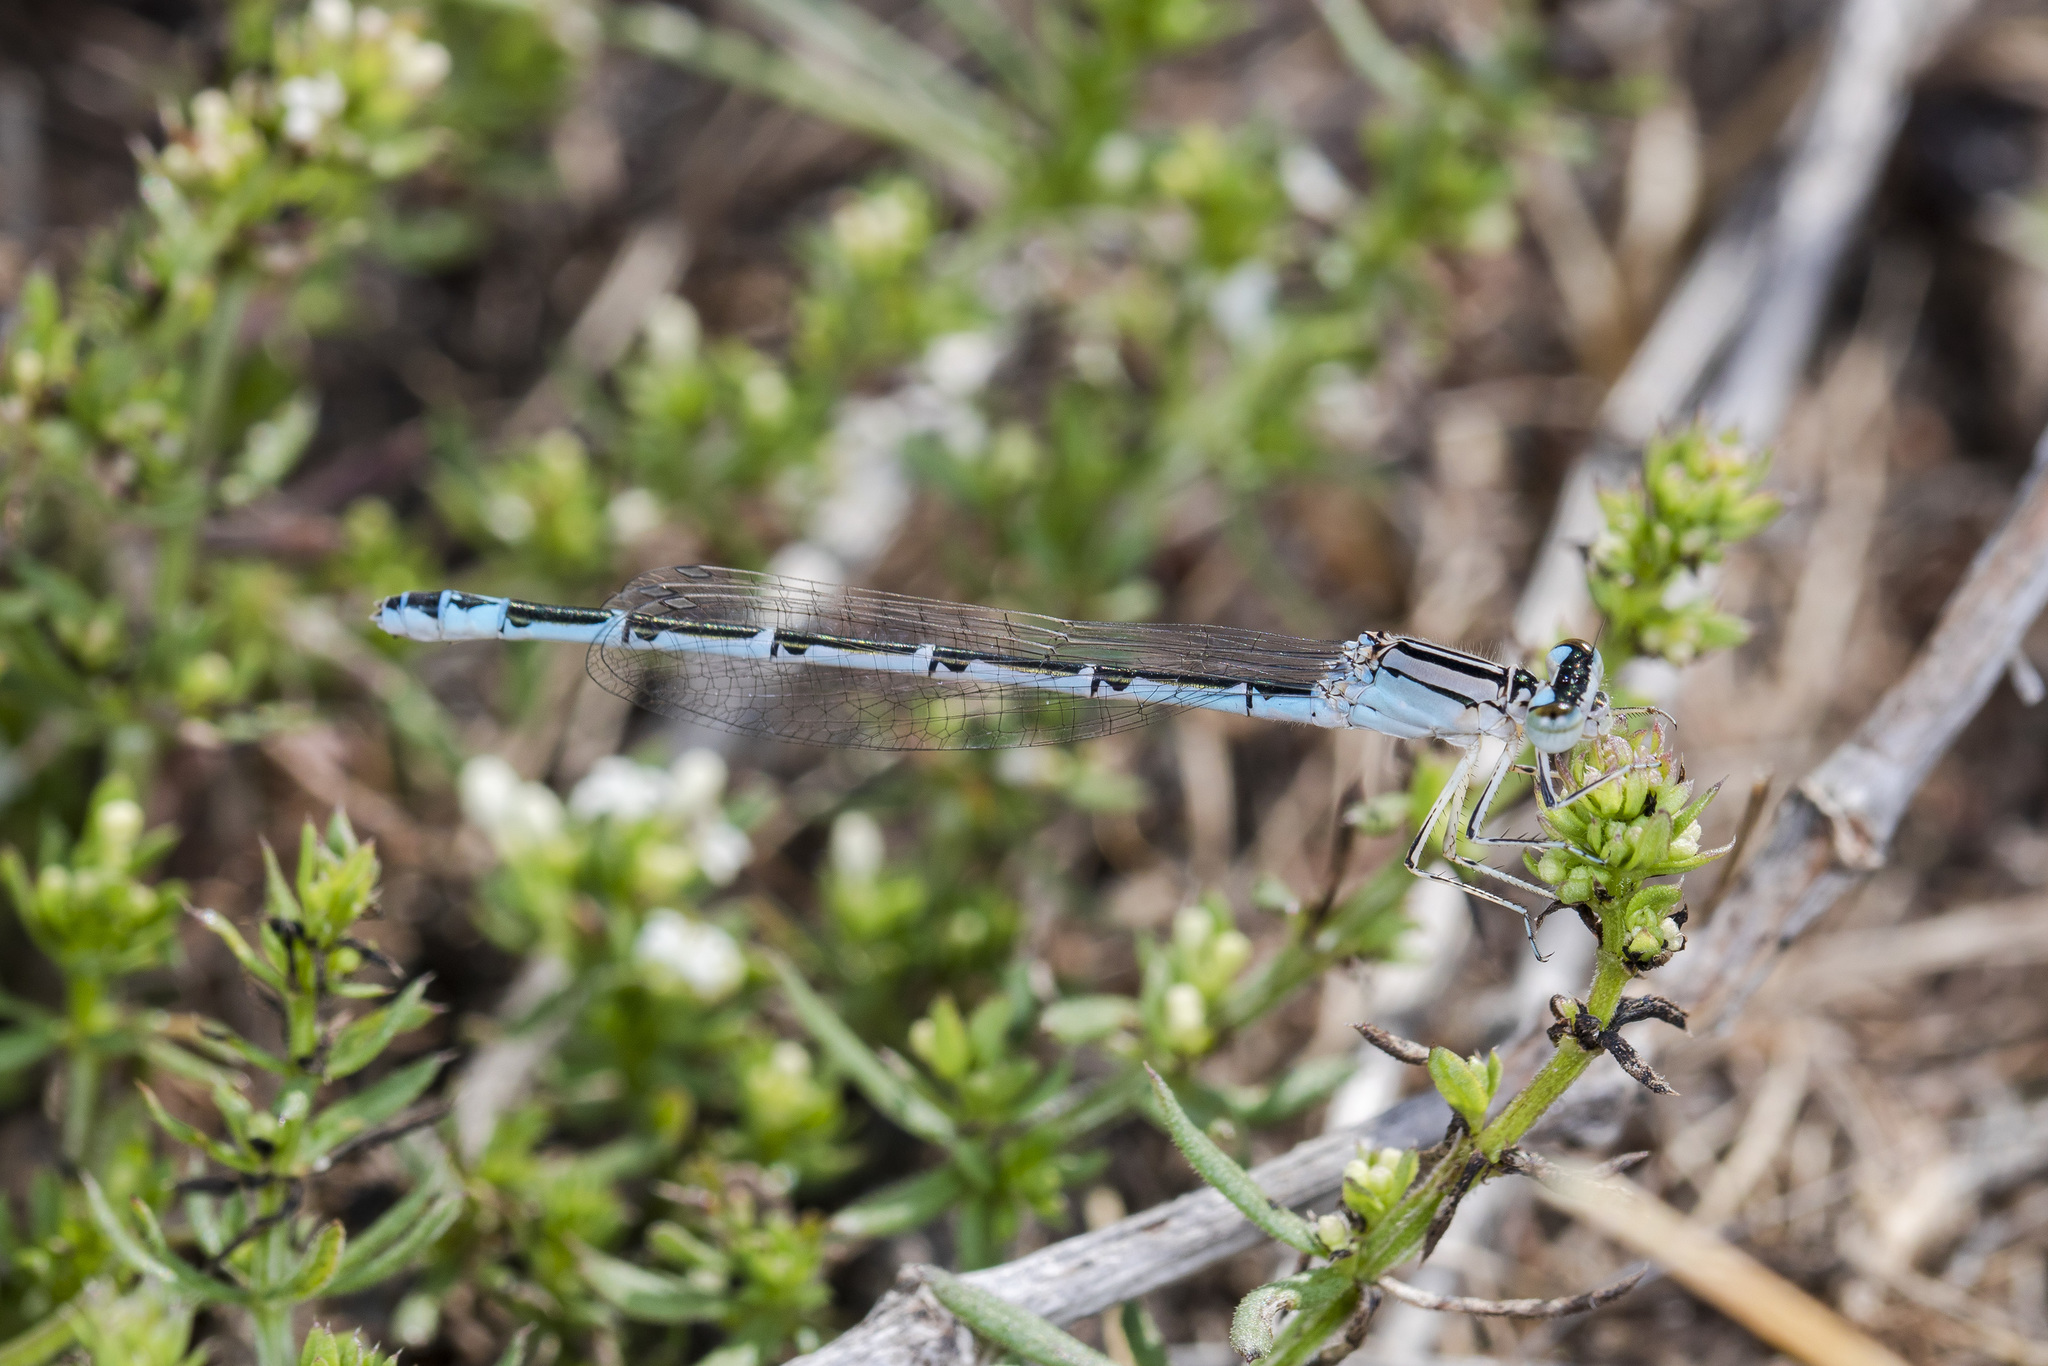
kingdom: Animalia
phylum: Arthropoda
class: Insecta
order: Odonata
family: Coenagrionidae
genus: Enallagma
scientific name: Enallagma cyathigerum
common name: Common blue damselfly
